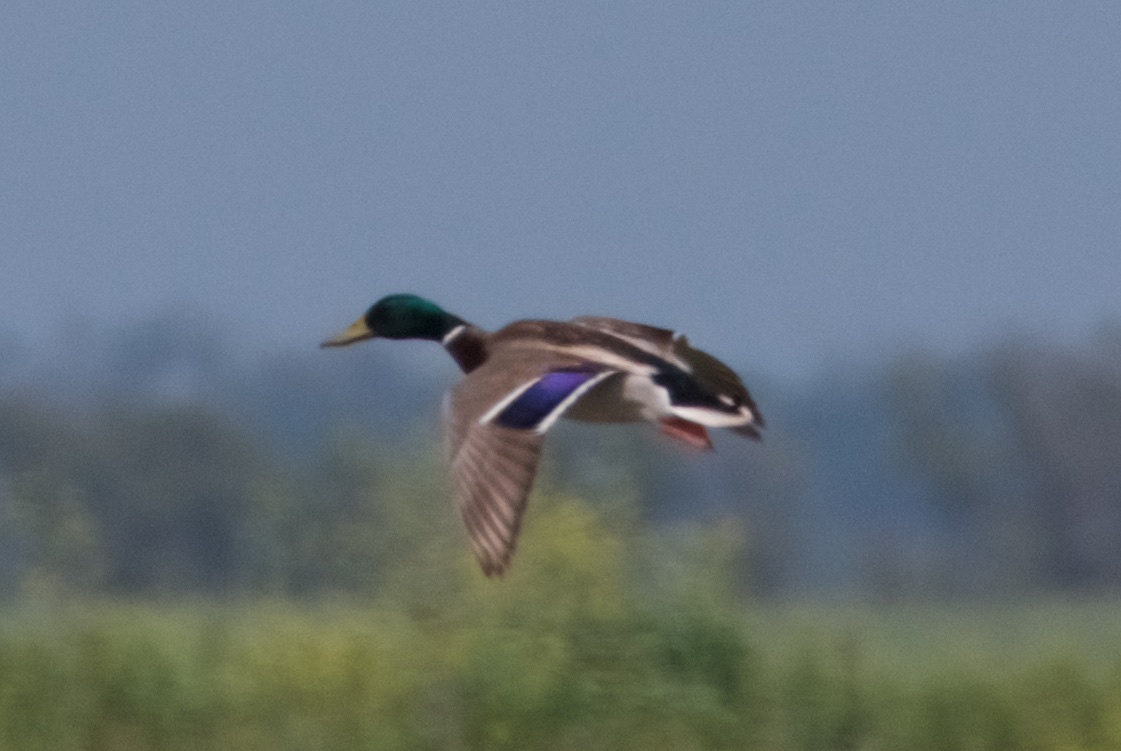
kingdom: Animalia
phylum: Chordata
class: Aves
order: Anseriformes
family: Anatidae
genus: Anas
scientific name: Anas platyrhynchos
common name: Mallard
